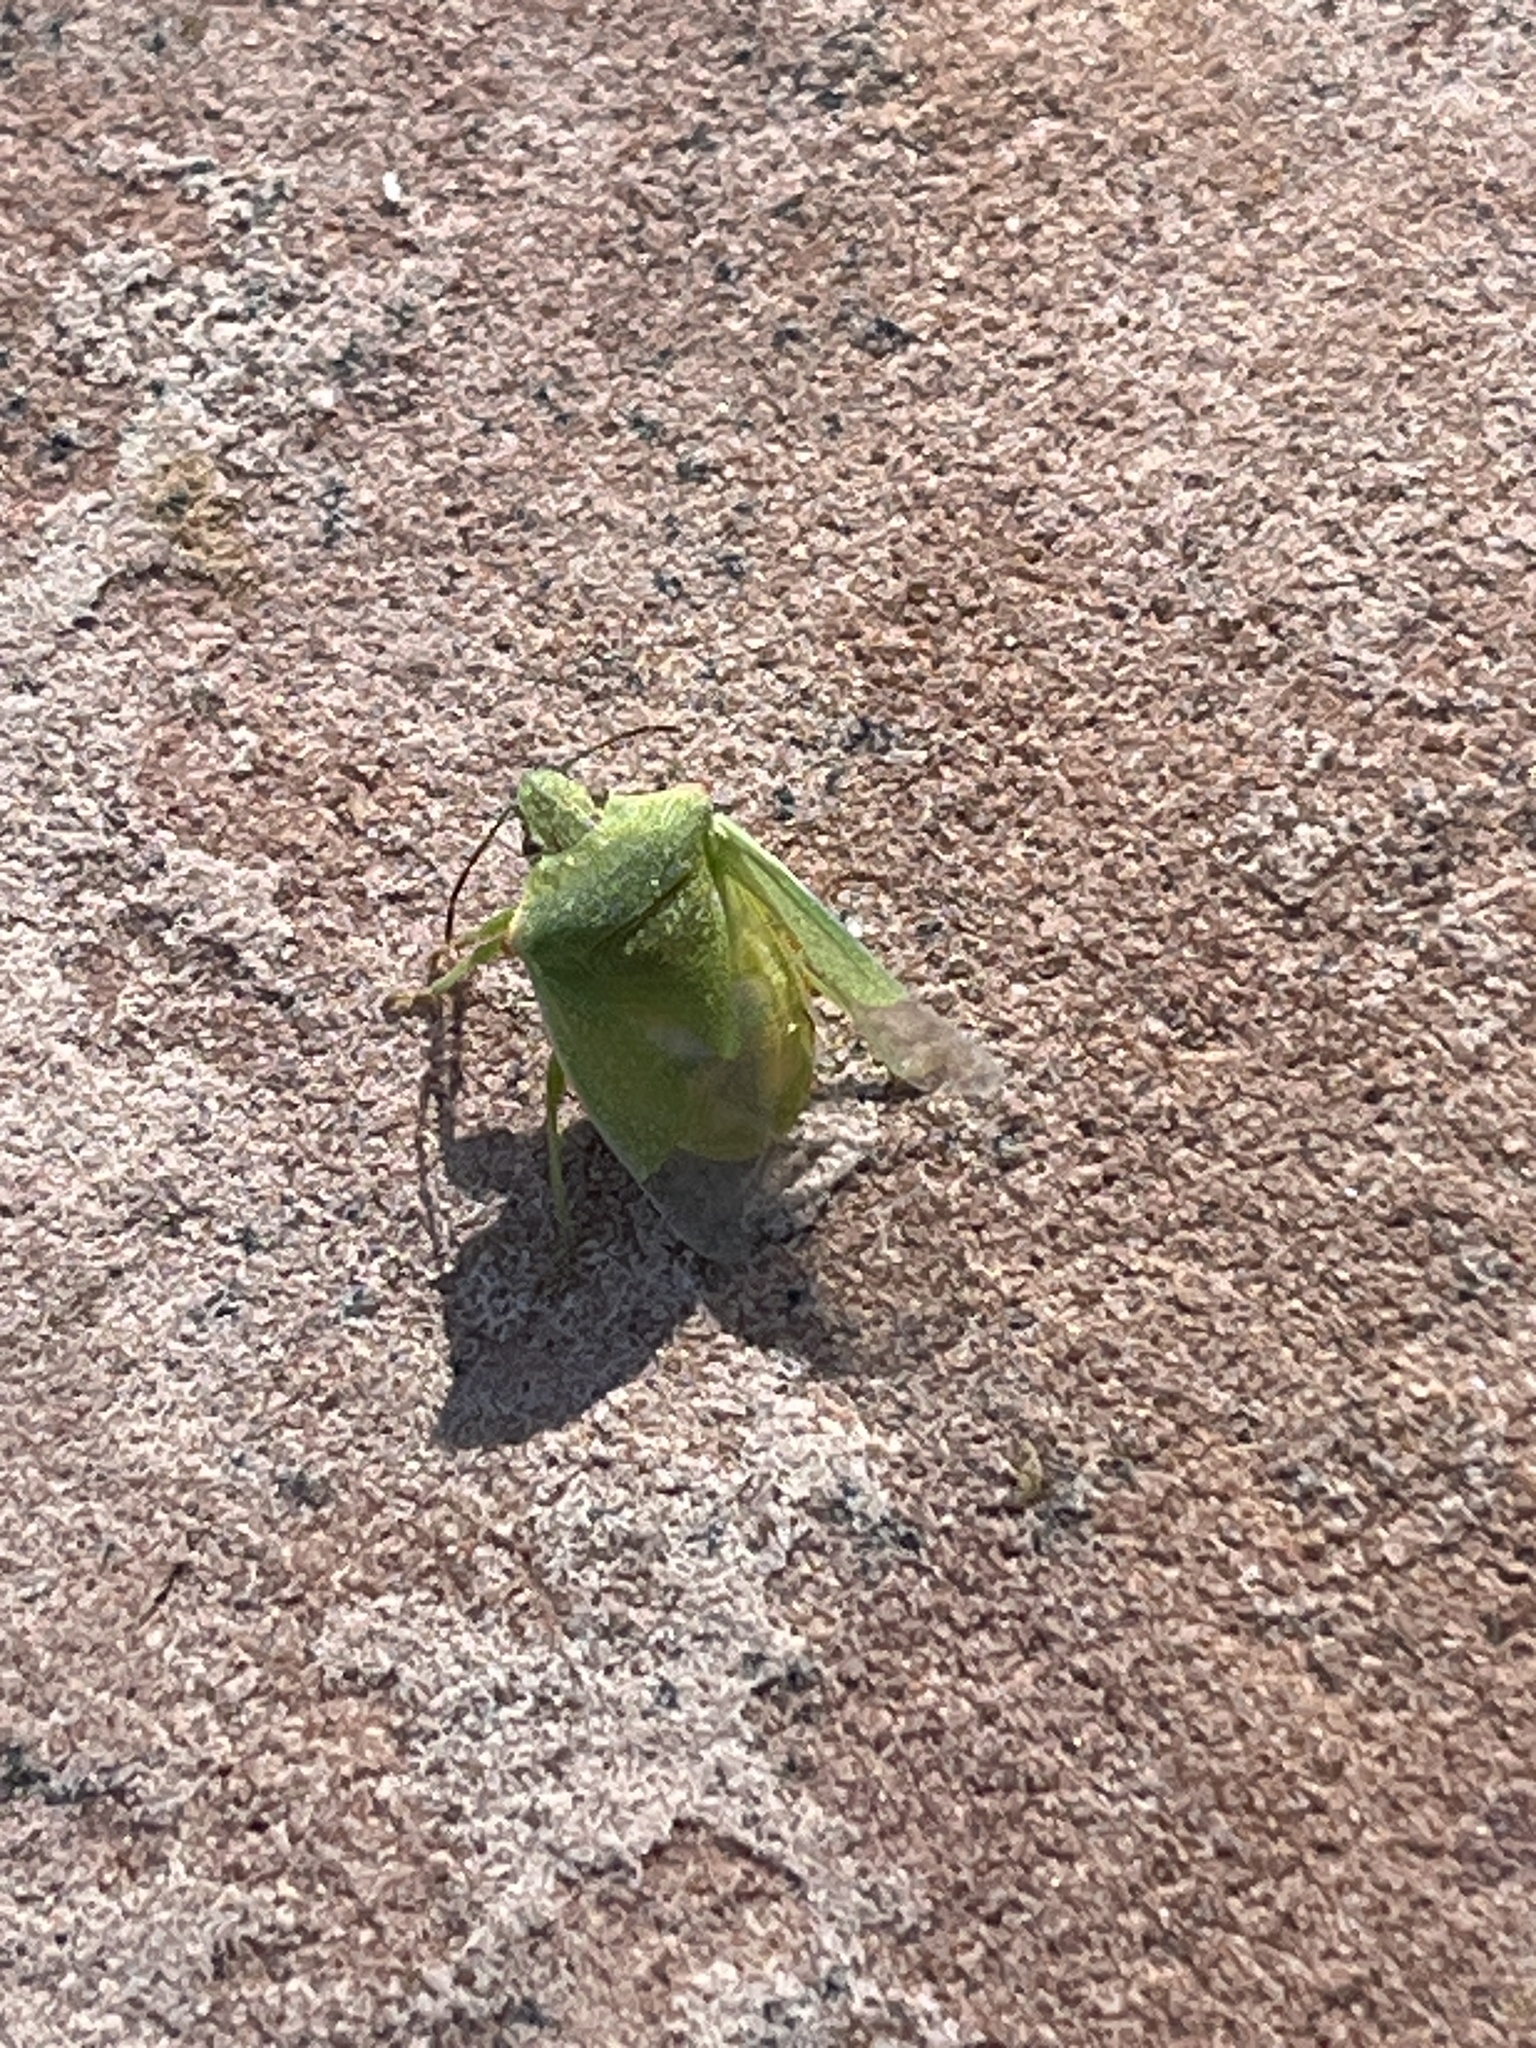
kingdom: Animalia
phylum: Arthropoda
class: Insecta
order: Hemiptera
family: Pentatomidae
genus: Thyanta
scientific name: Thyanta accerra
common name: Stink bug
